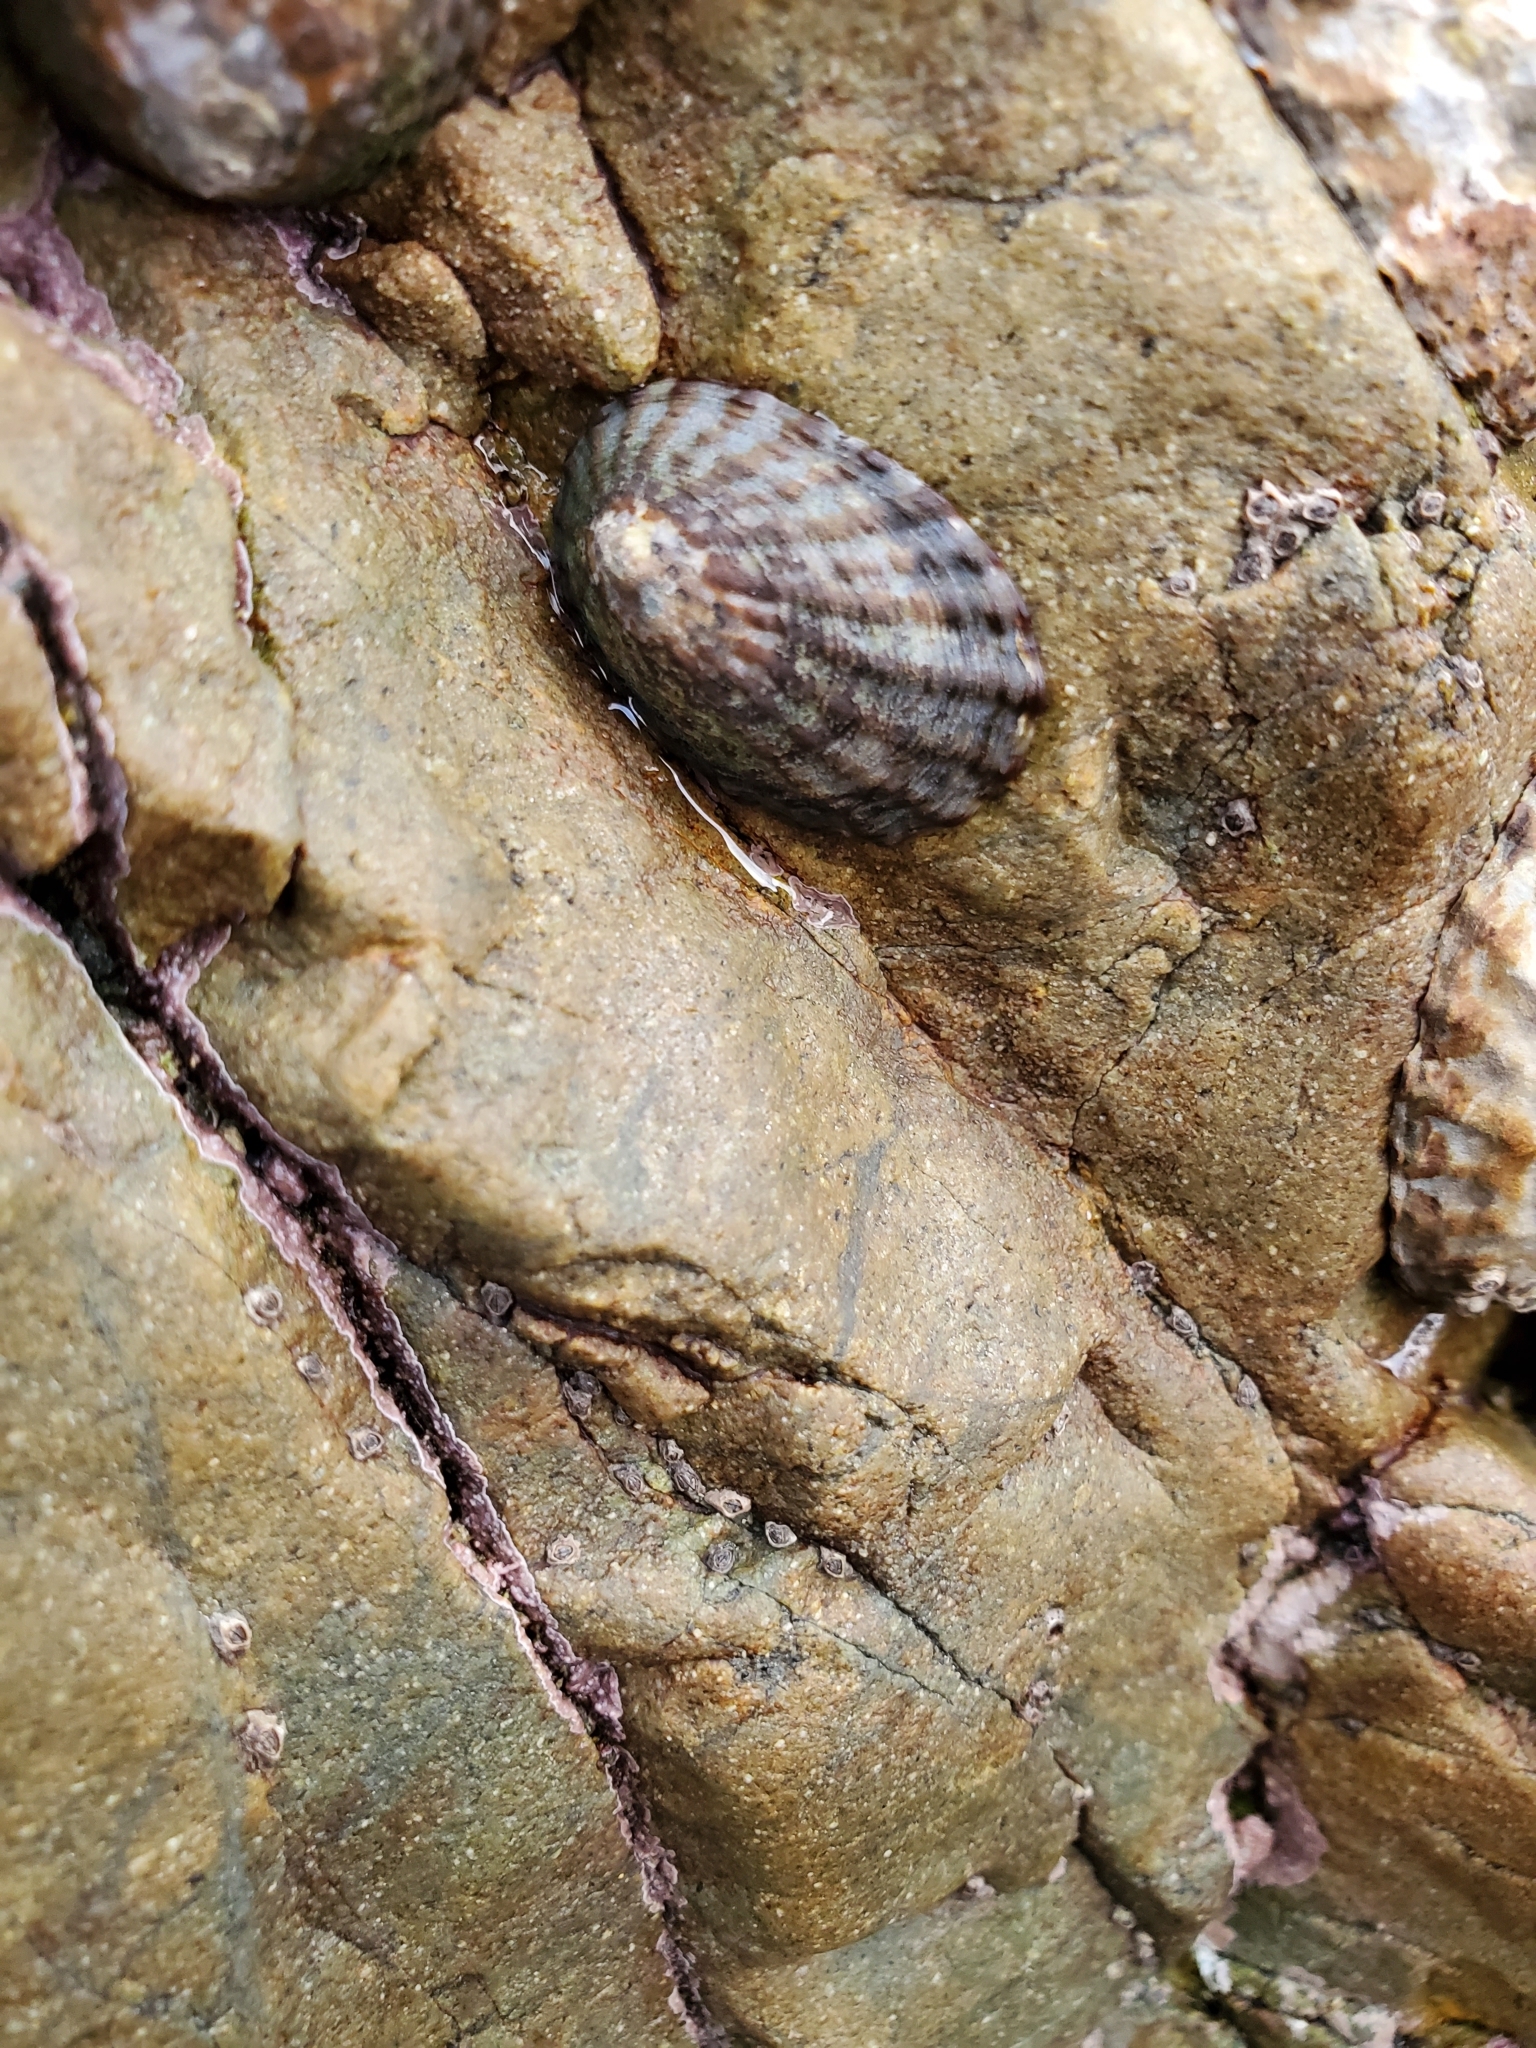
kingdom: Animalia
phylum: Mollusca
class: Gastropoda
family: Nacellidae
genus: Cellana
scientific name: Cellana denticulata
